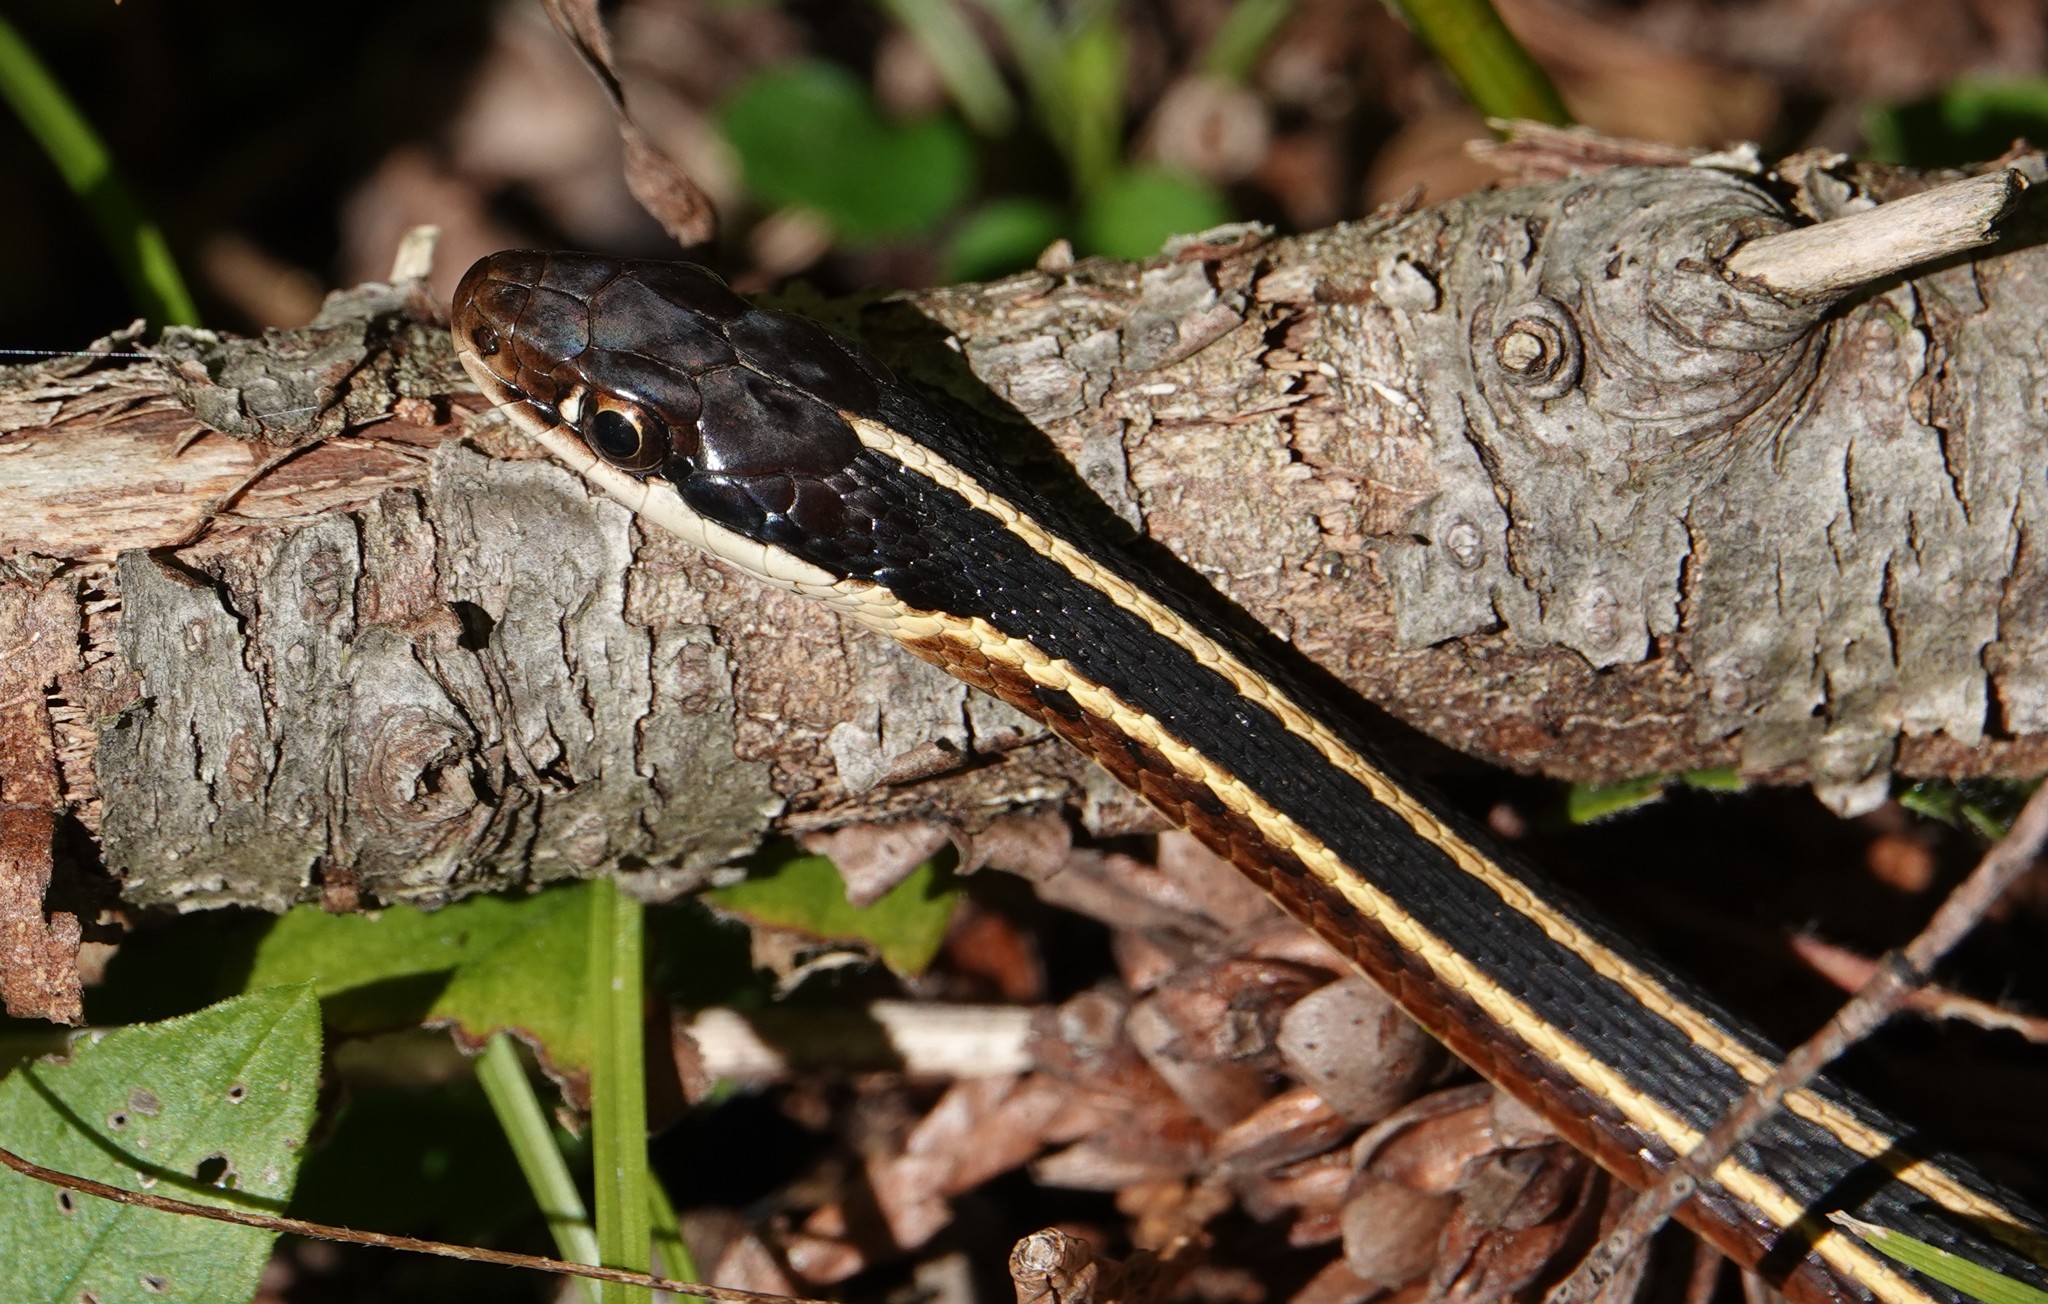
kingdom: Animalia
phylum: Chordata
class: Squamata
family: Colubridae
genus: Thamnophis
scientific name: Thamnophis saurita
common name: Eastern ribbonsnake
